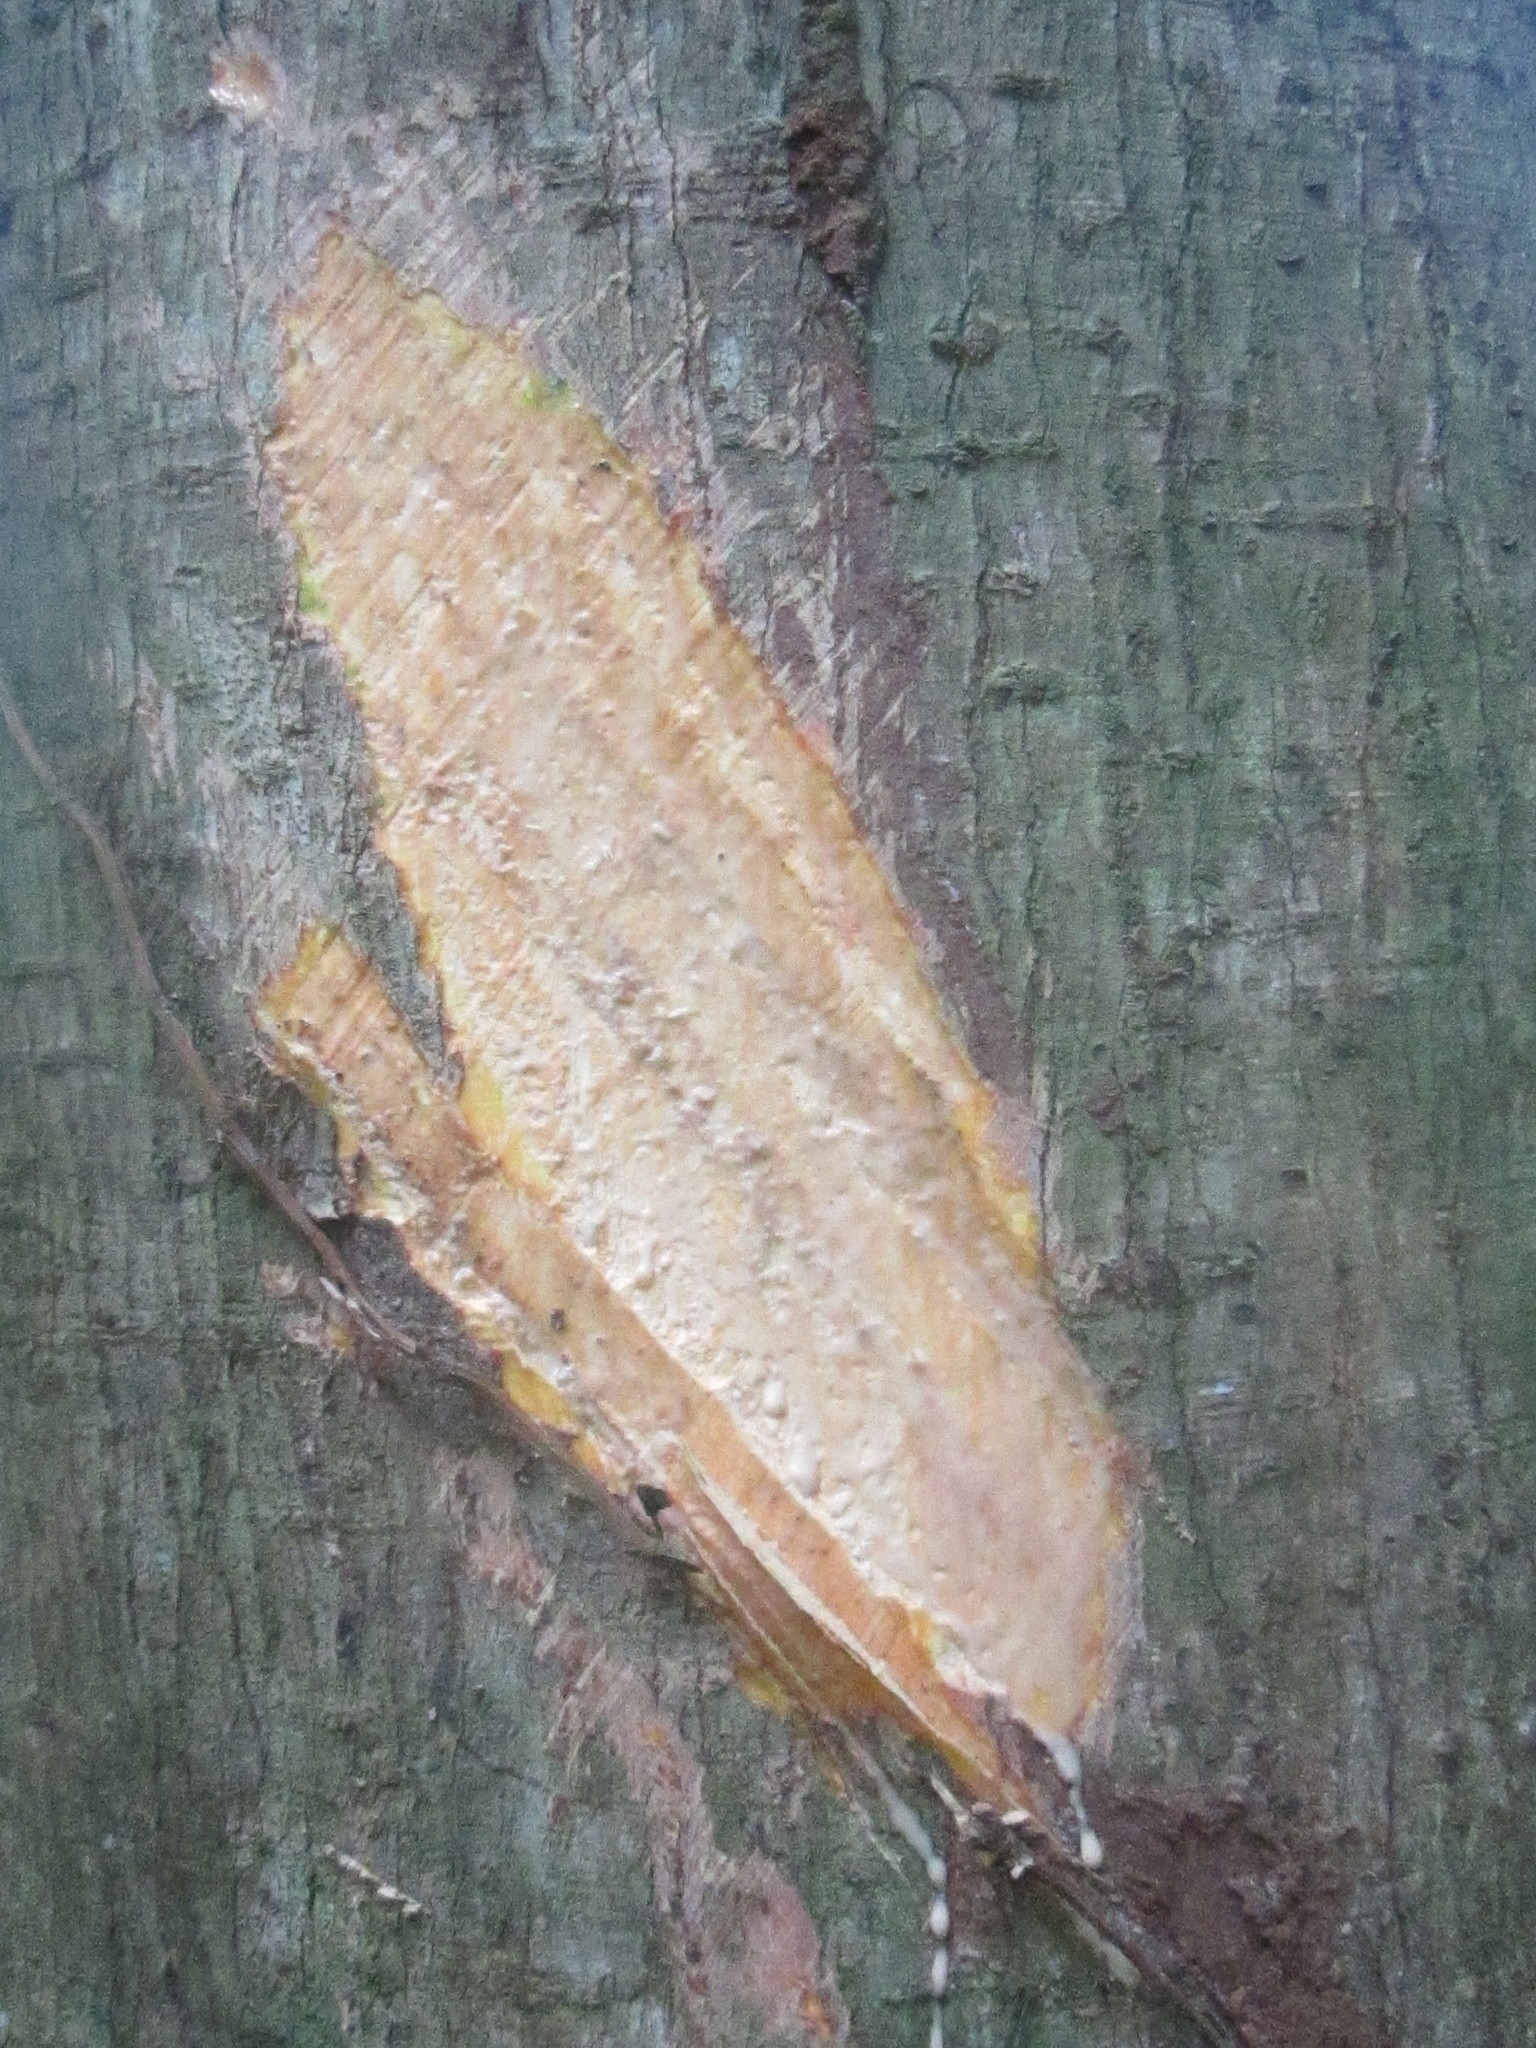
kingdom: Plantae
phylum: Tracheophyta
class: Magnoliopsida
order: Rosales
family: Moraceae
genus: Antiaris
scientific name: Antiaris toxicaria
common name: Sackingtree
